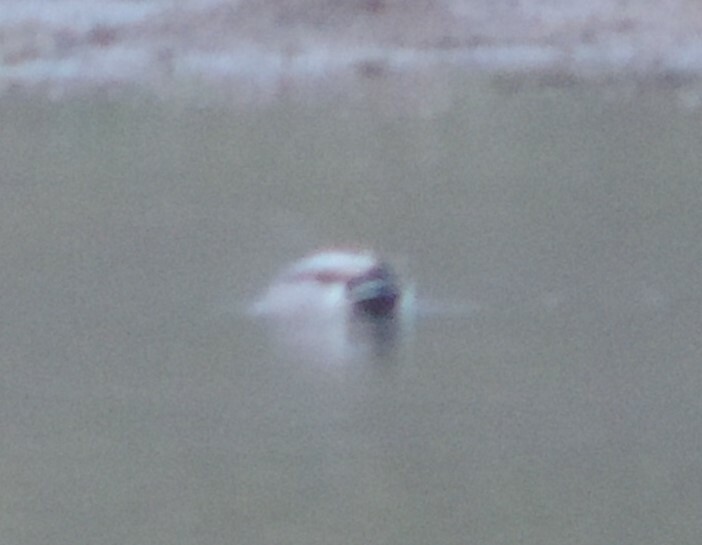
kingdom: Animalia
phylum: Chordata
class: Aves
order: Anseriformes
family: Anatidae
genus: Anas
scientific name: Anas platyrhynchos
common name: Mallard
